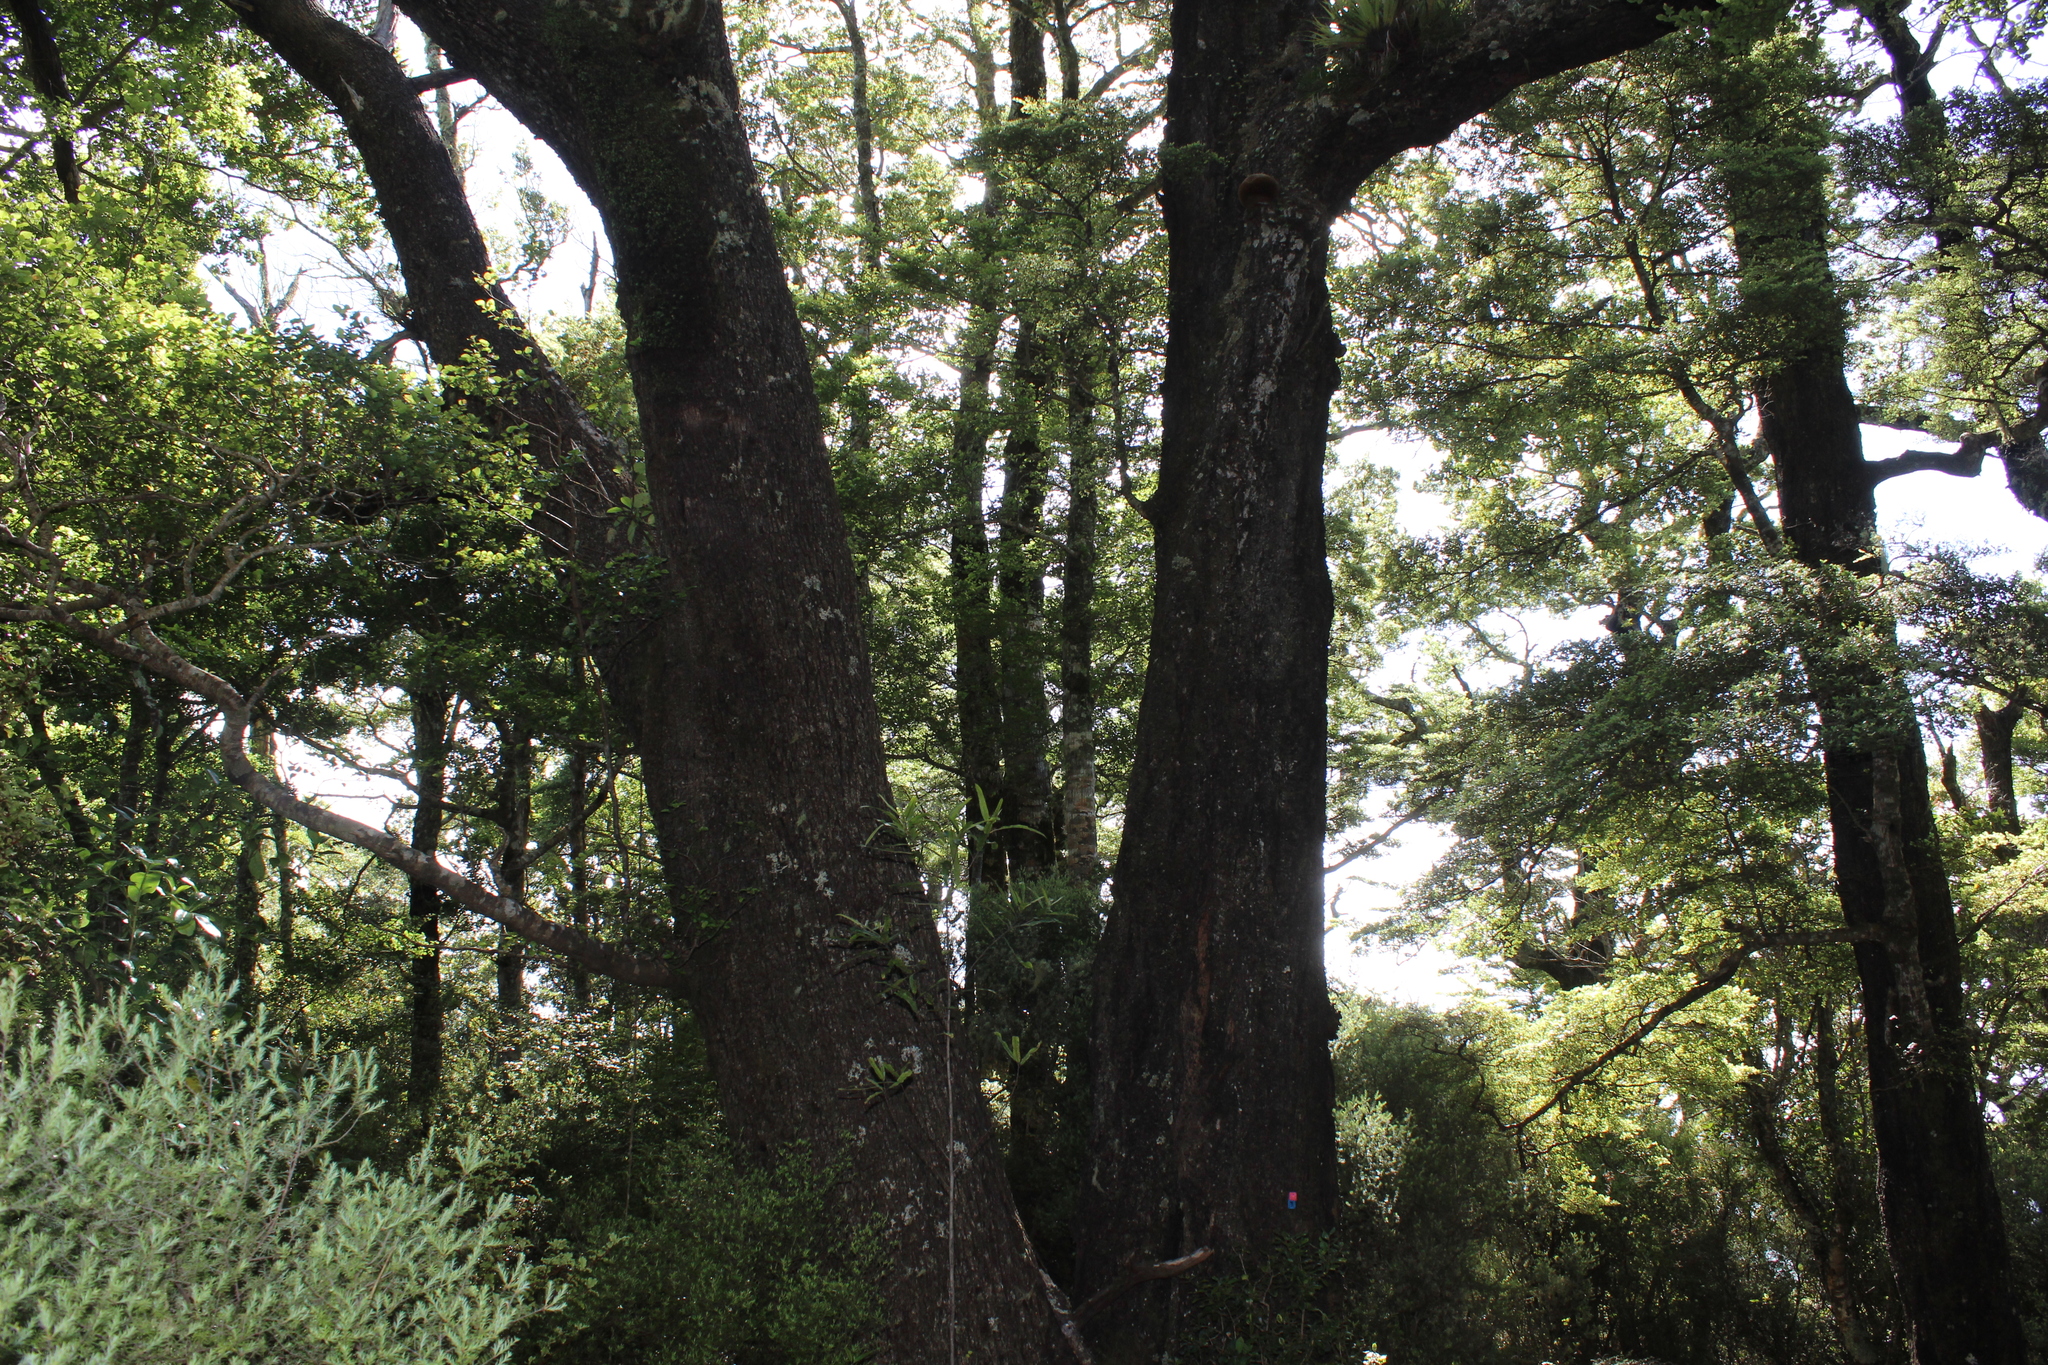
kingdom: Plantae
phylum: Tracheophyta
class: Magnoliopsida
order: Fagales
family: Nothofagaceae
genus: Nothofagus
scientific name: Nothofagus truncata
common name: Hard beech
